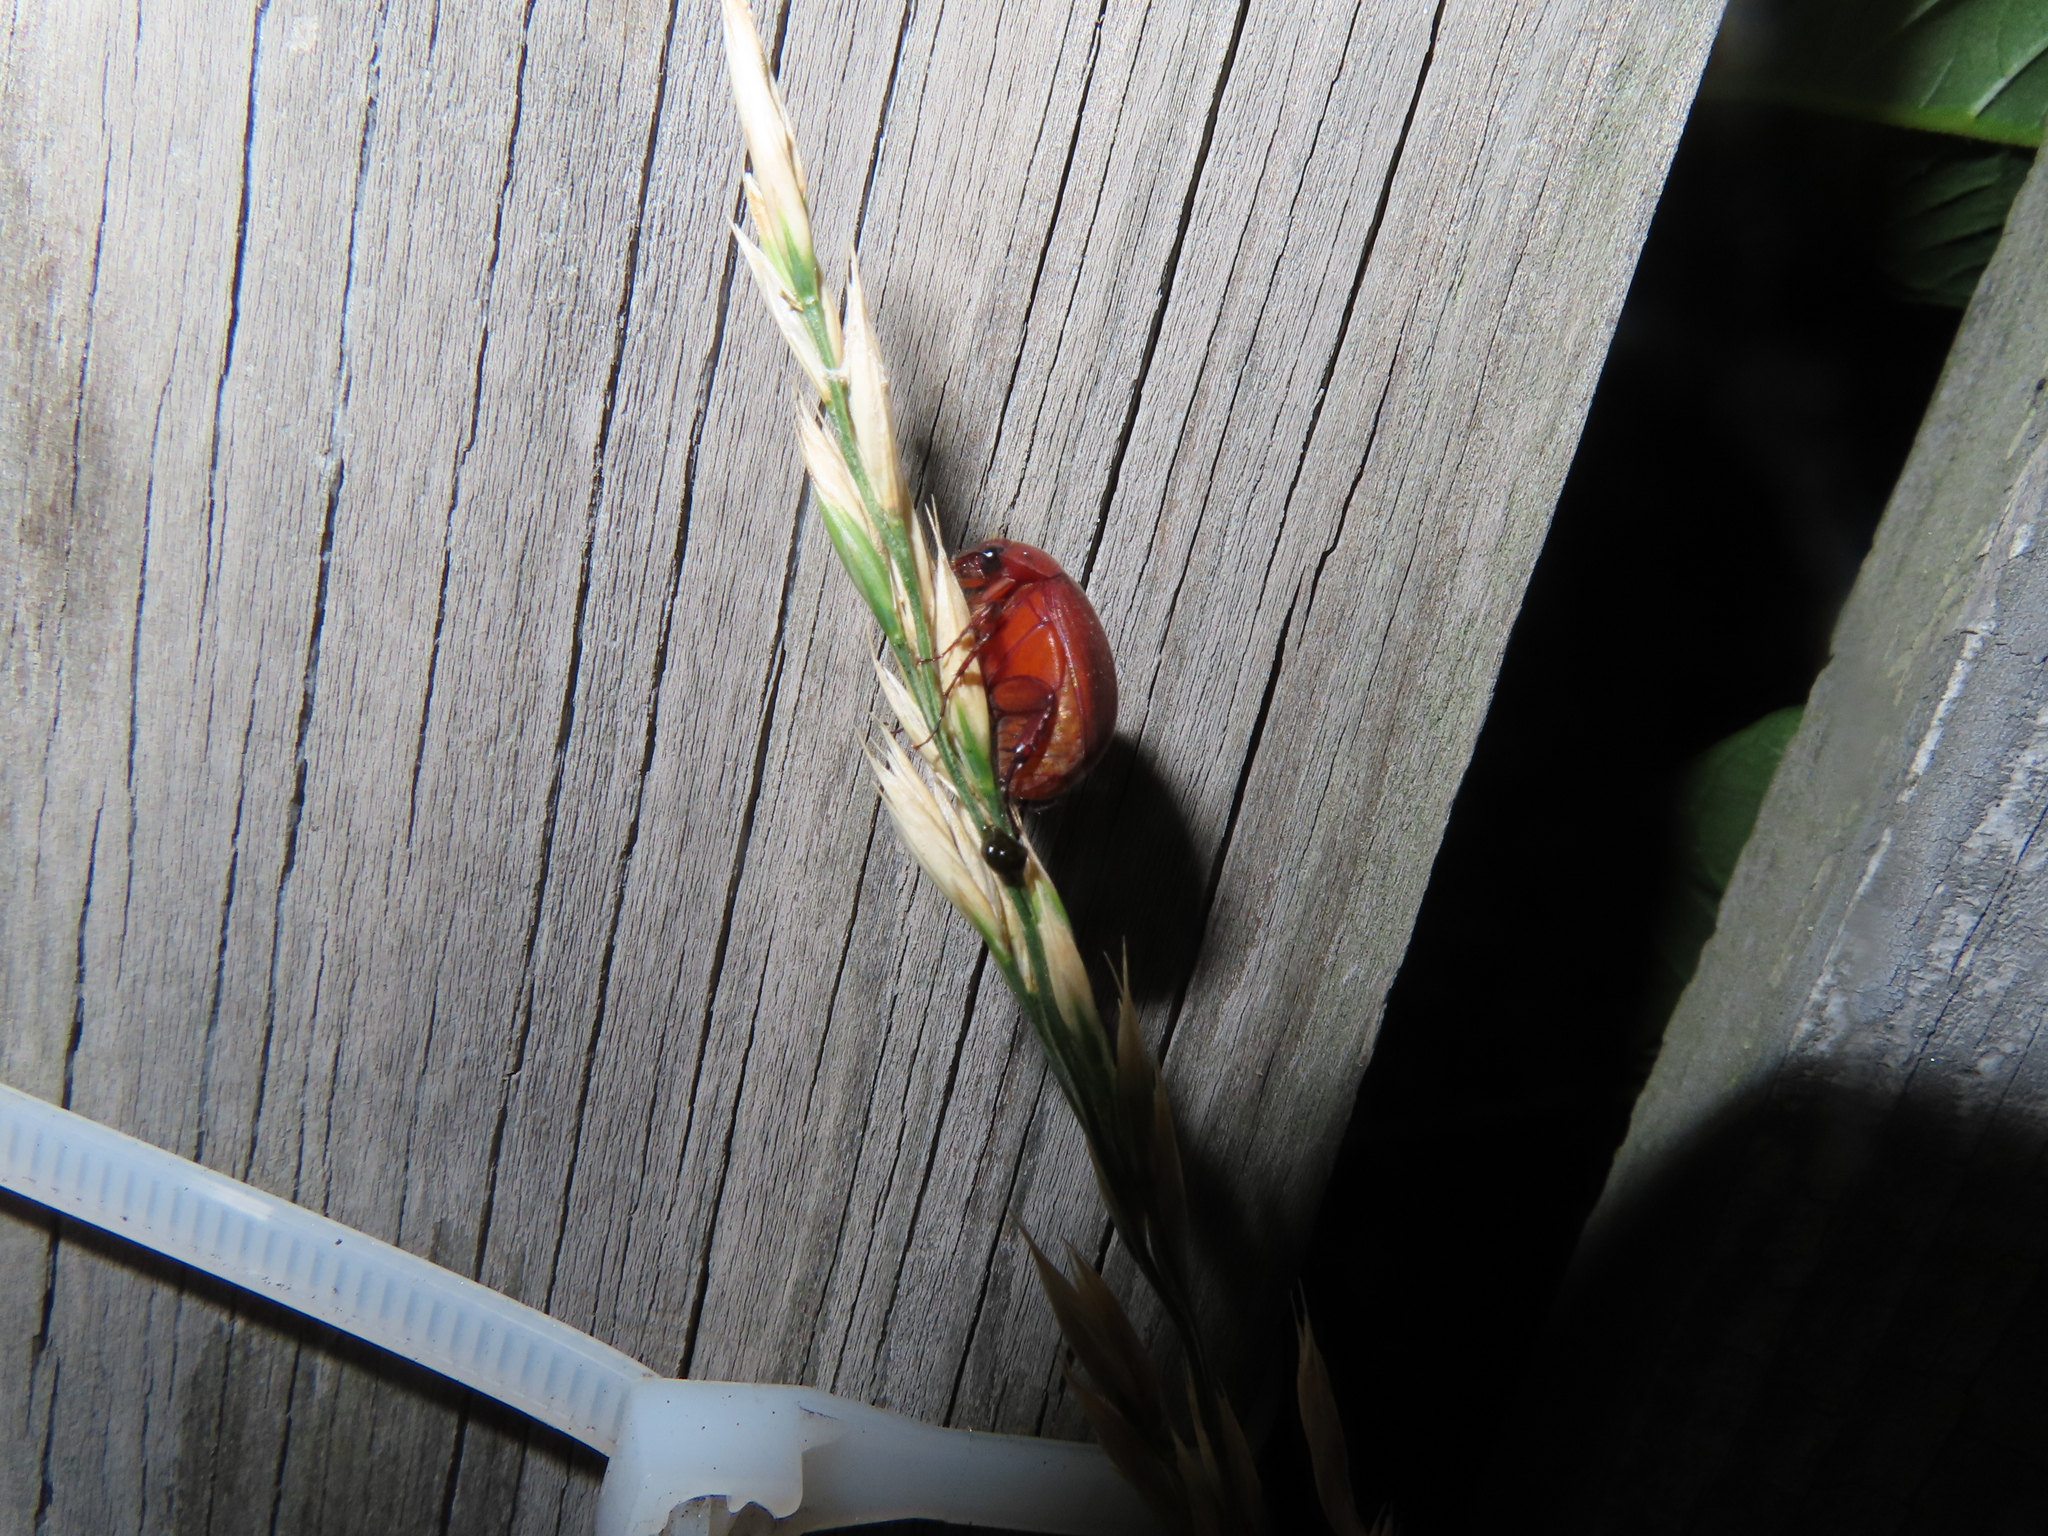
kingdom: Animalia
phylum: Arthropoda
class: Insecta
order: Coleoptera
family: Scarabaeidae
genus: Maladera
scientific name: Maladera formosae
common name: Asiatic garden beetle
